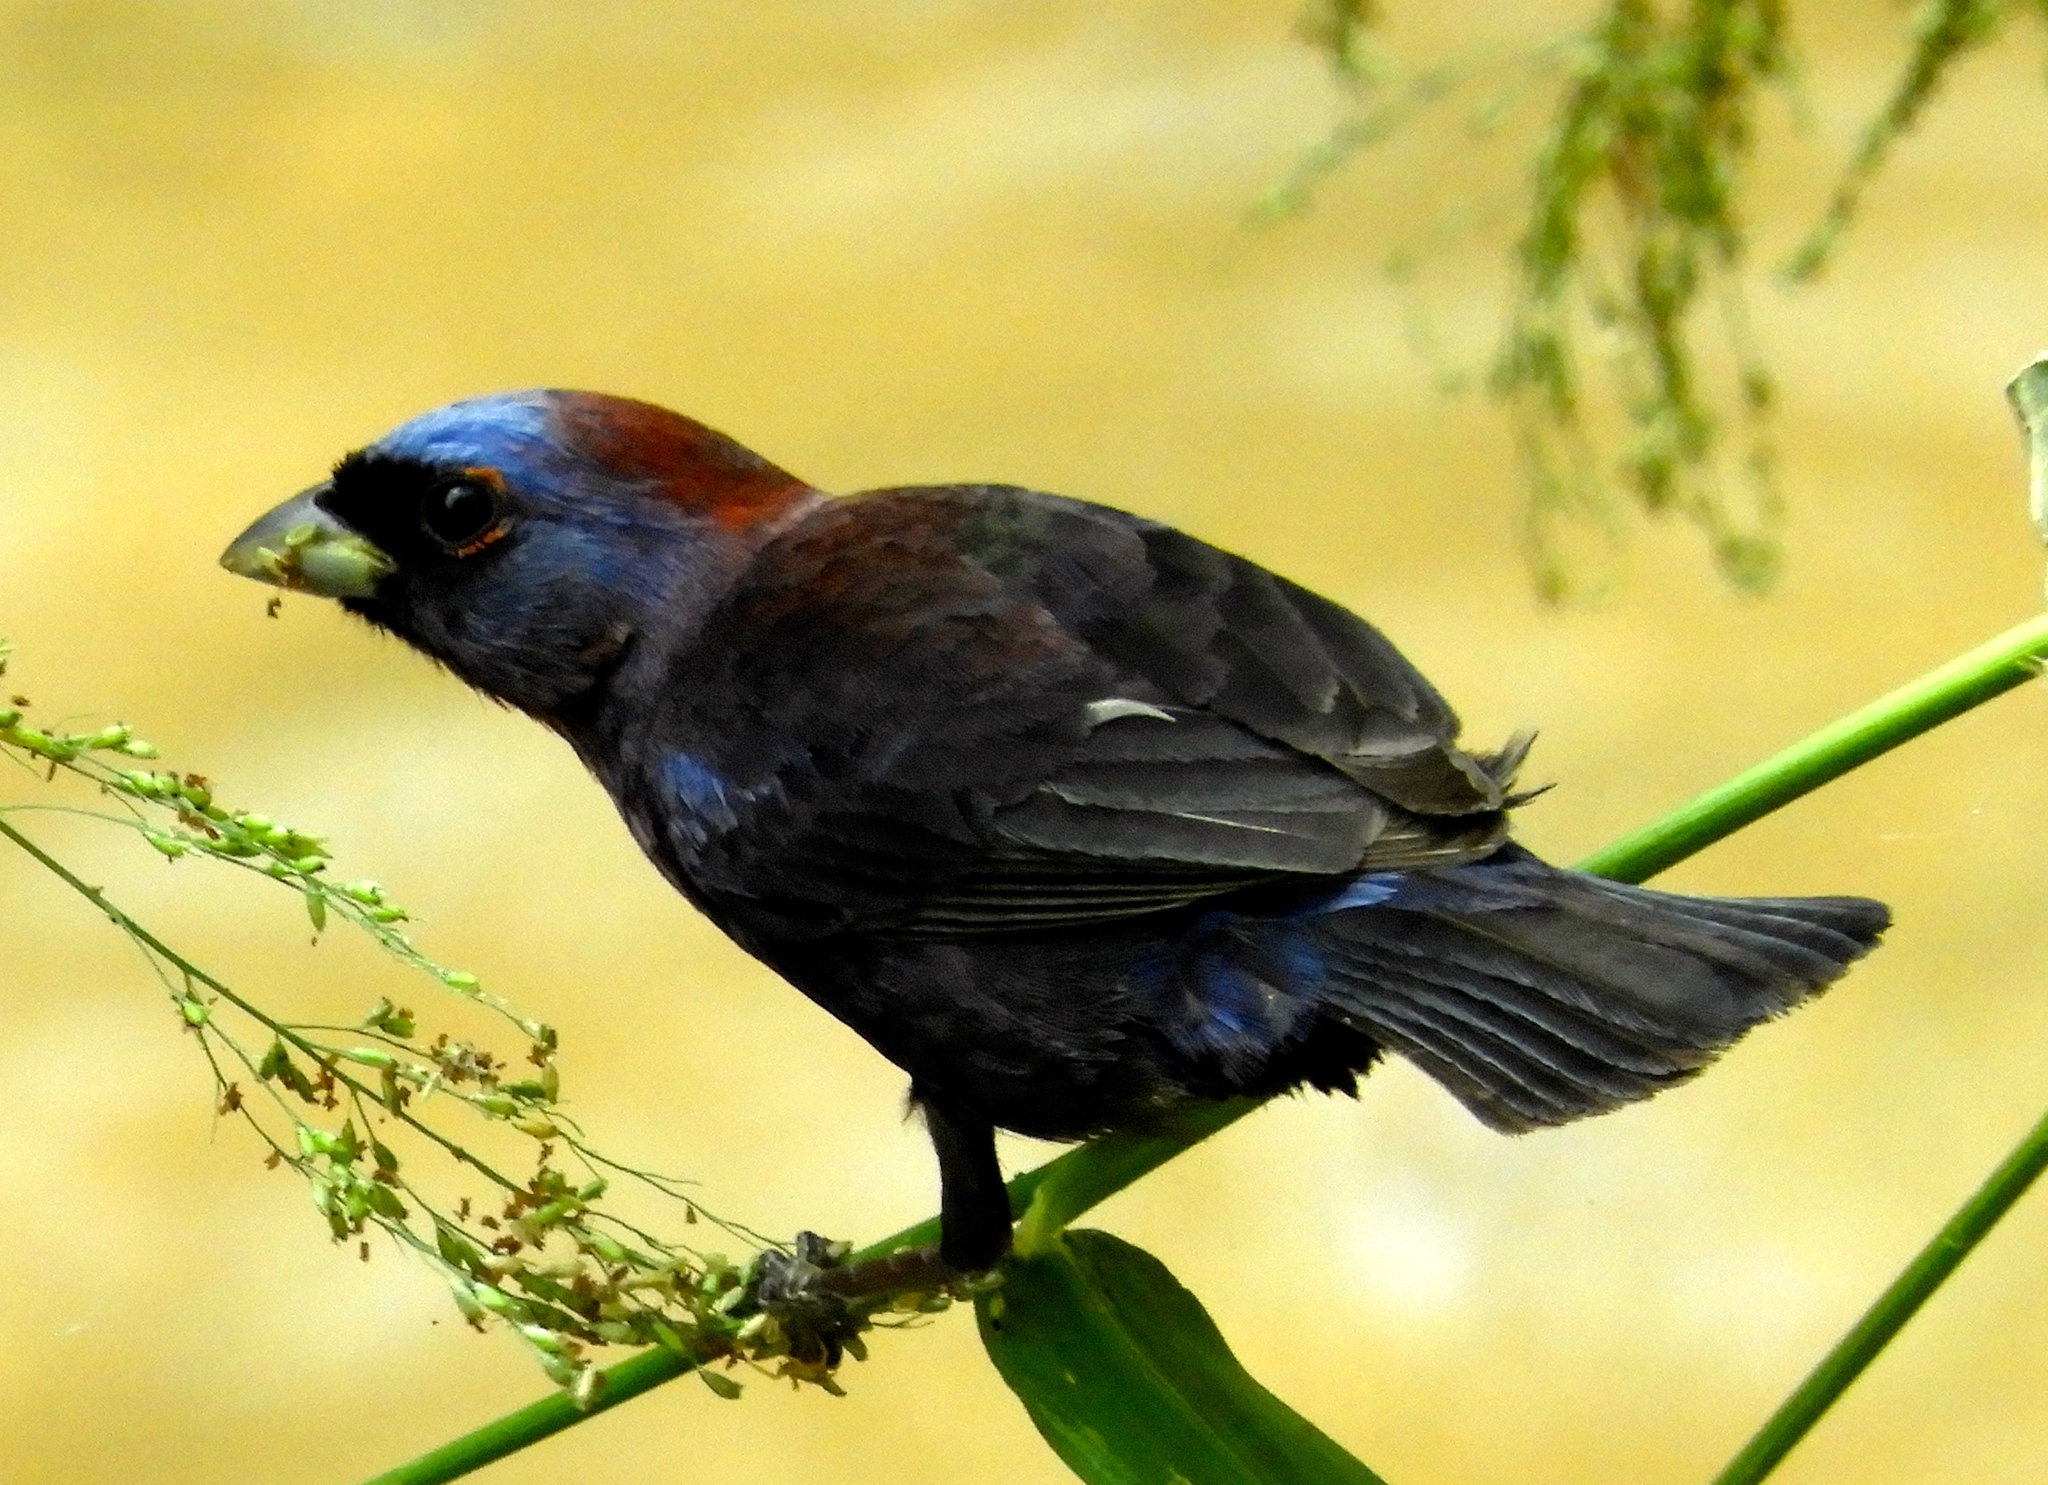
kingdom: Animalia
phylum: Chordata
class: Aves
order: Passeriformes
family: Cardinalidae
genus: Passerina
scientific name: Passerina versicolor
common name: Varied bunting
